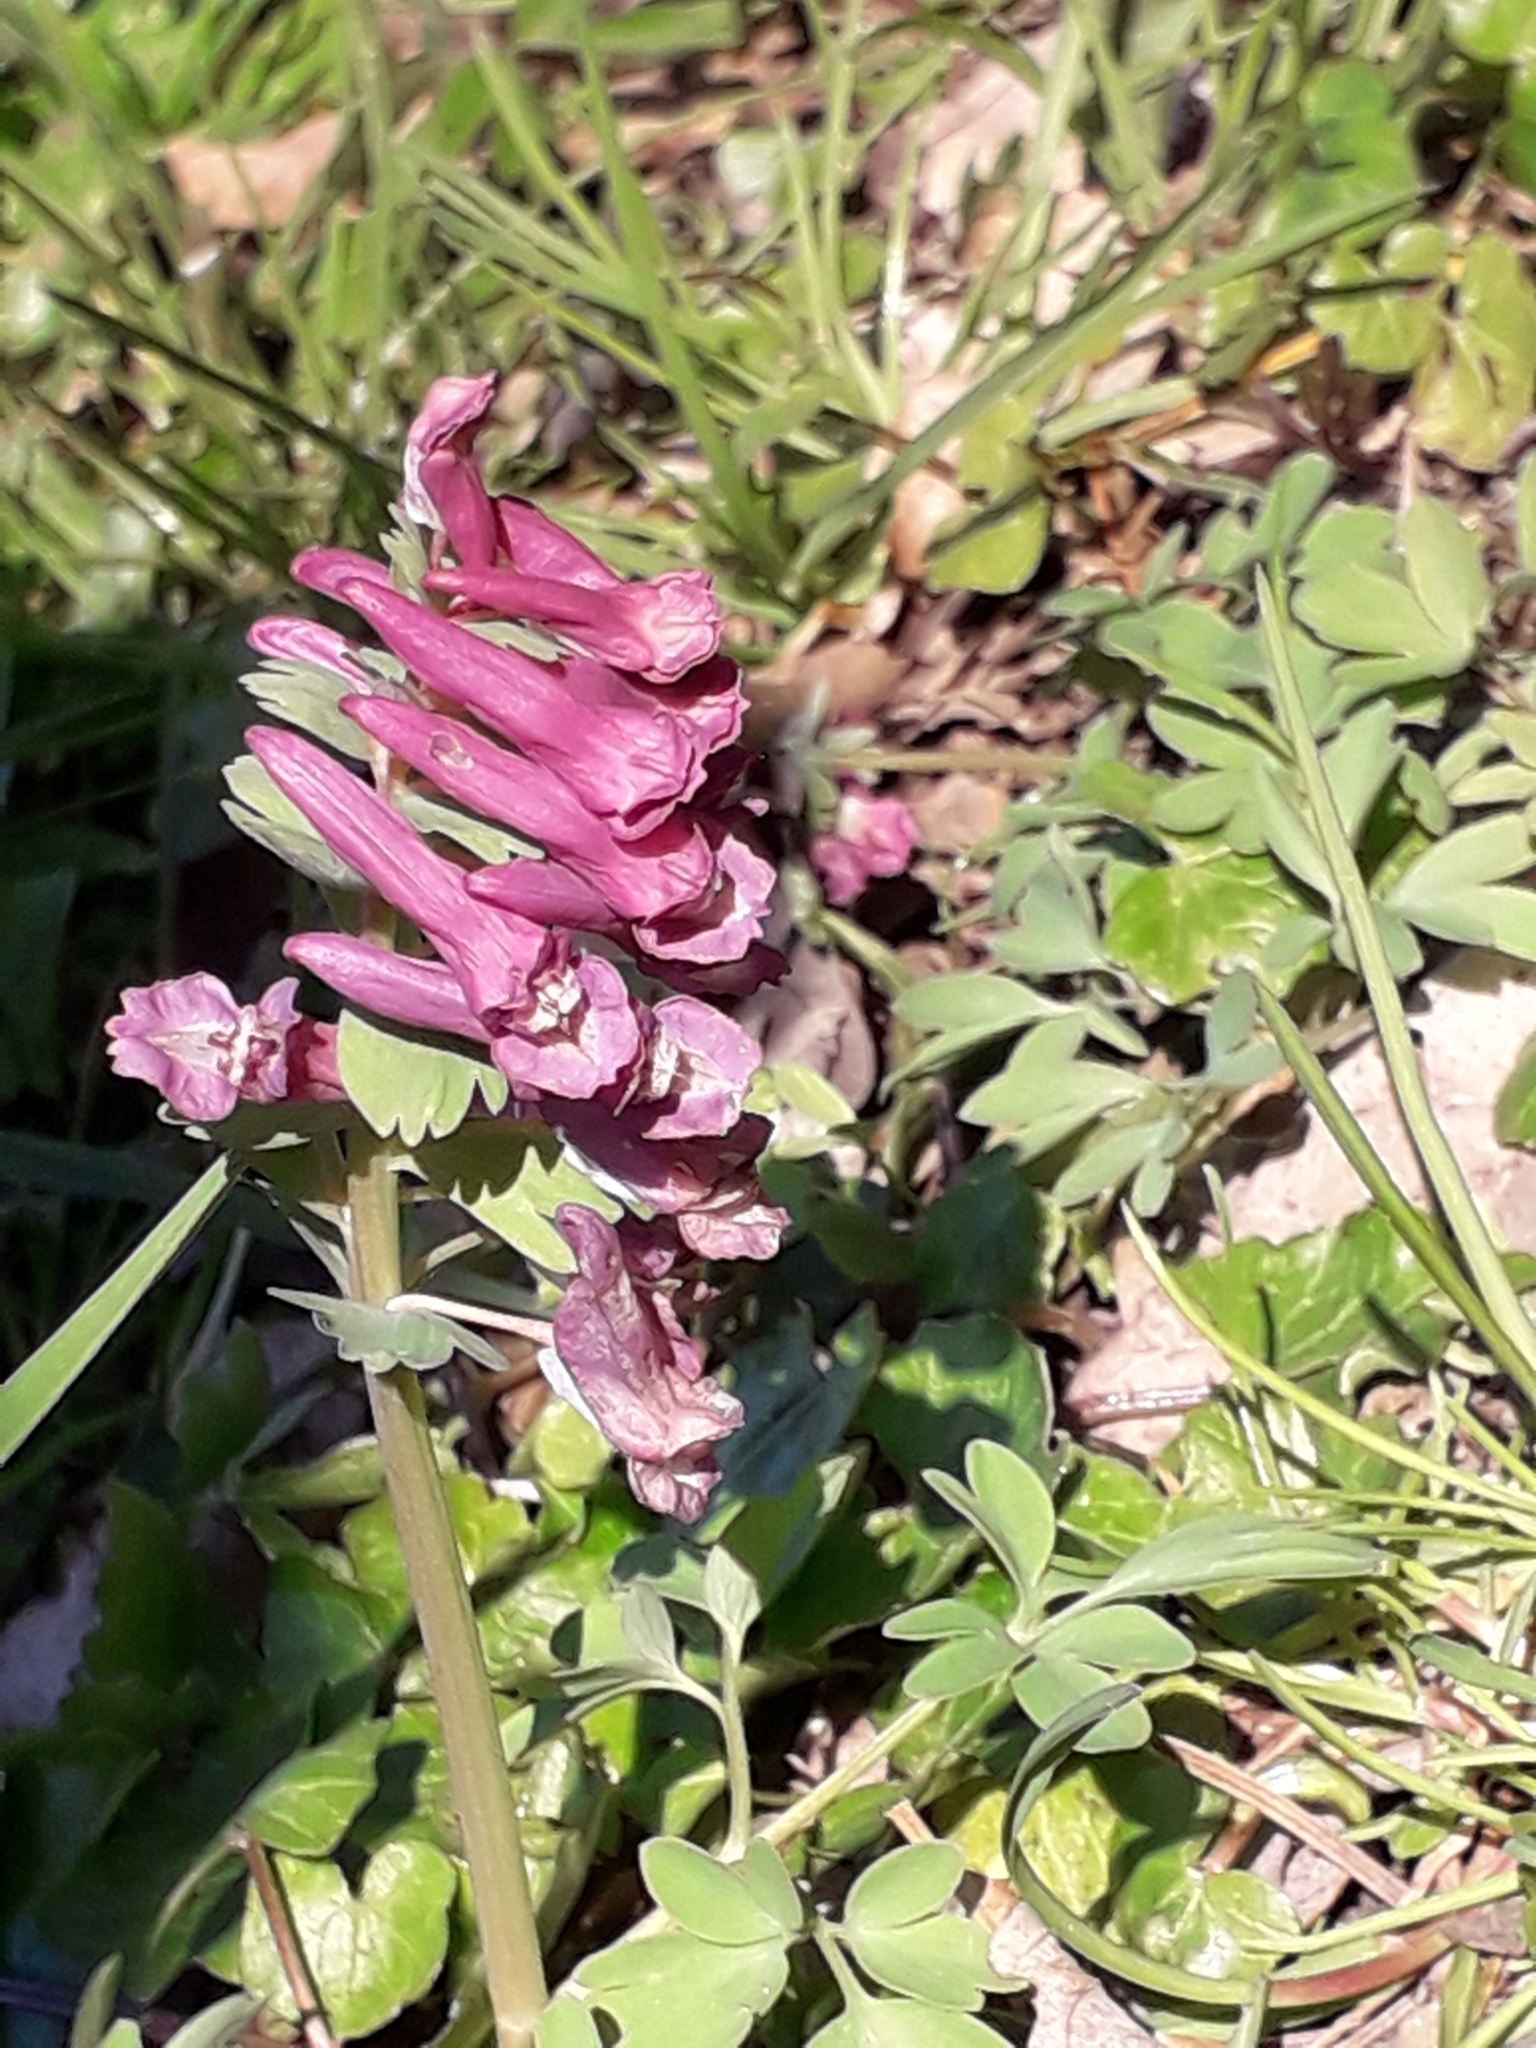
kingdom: Plantae
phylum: Tracheophyta
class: Magnoliopsida
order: Ranunculales
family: Papaveraceae
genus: Corydalis
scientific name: Corydalis solida
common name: Bird-in-a-bush
